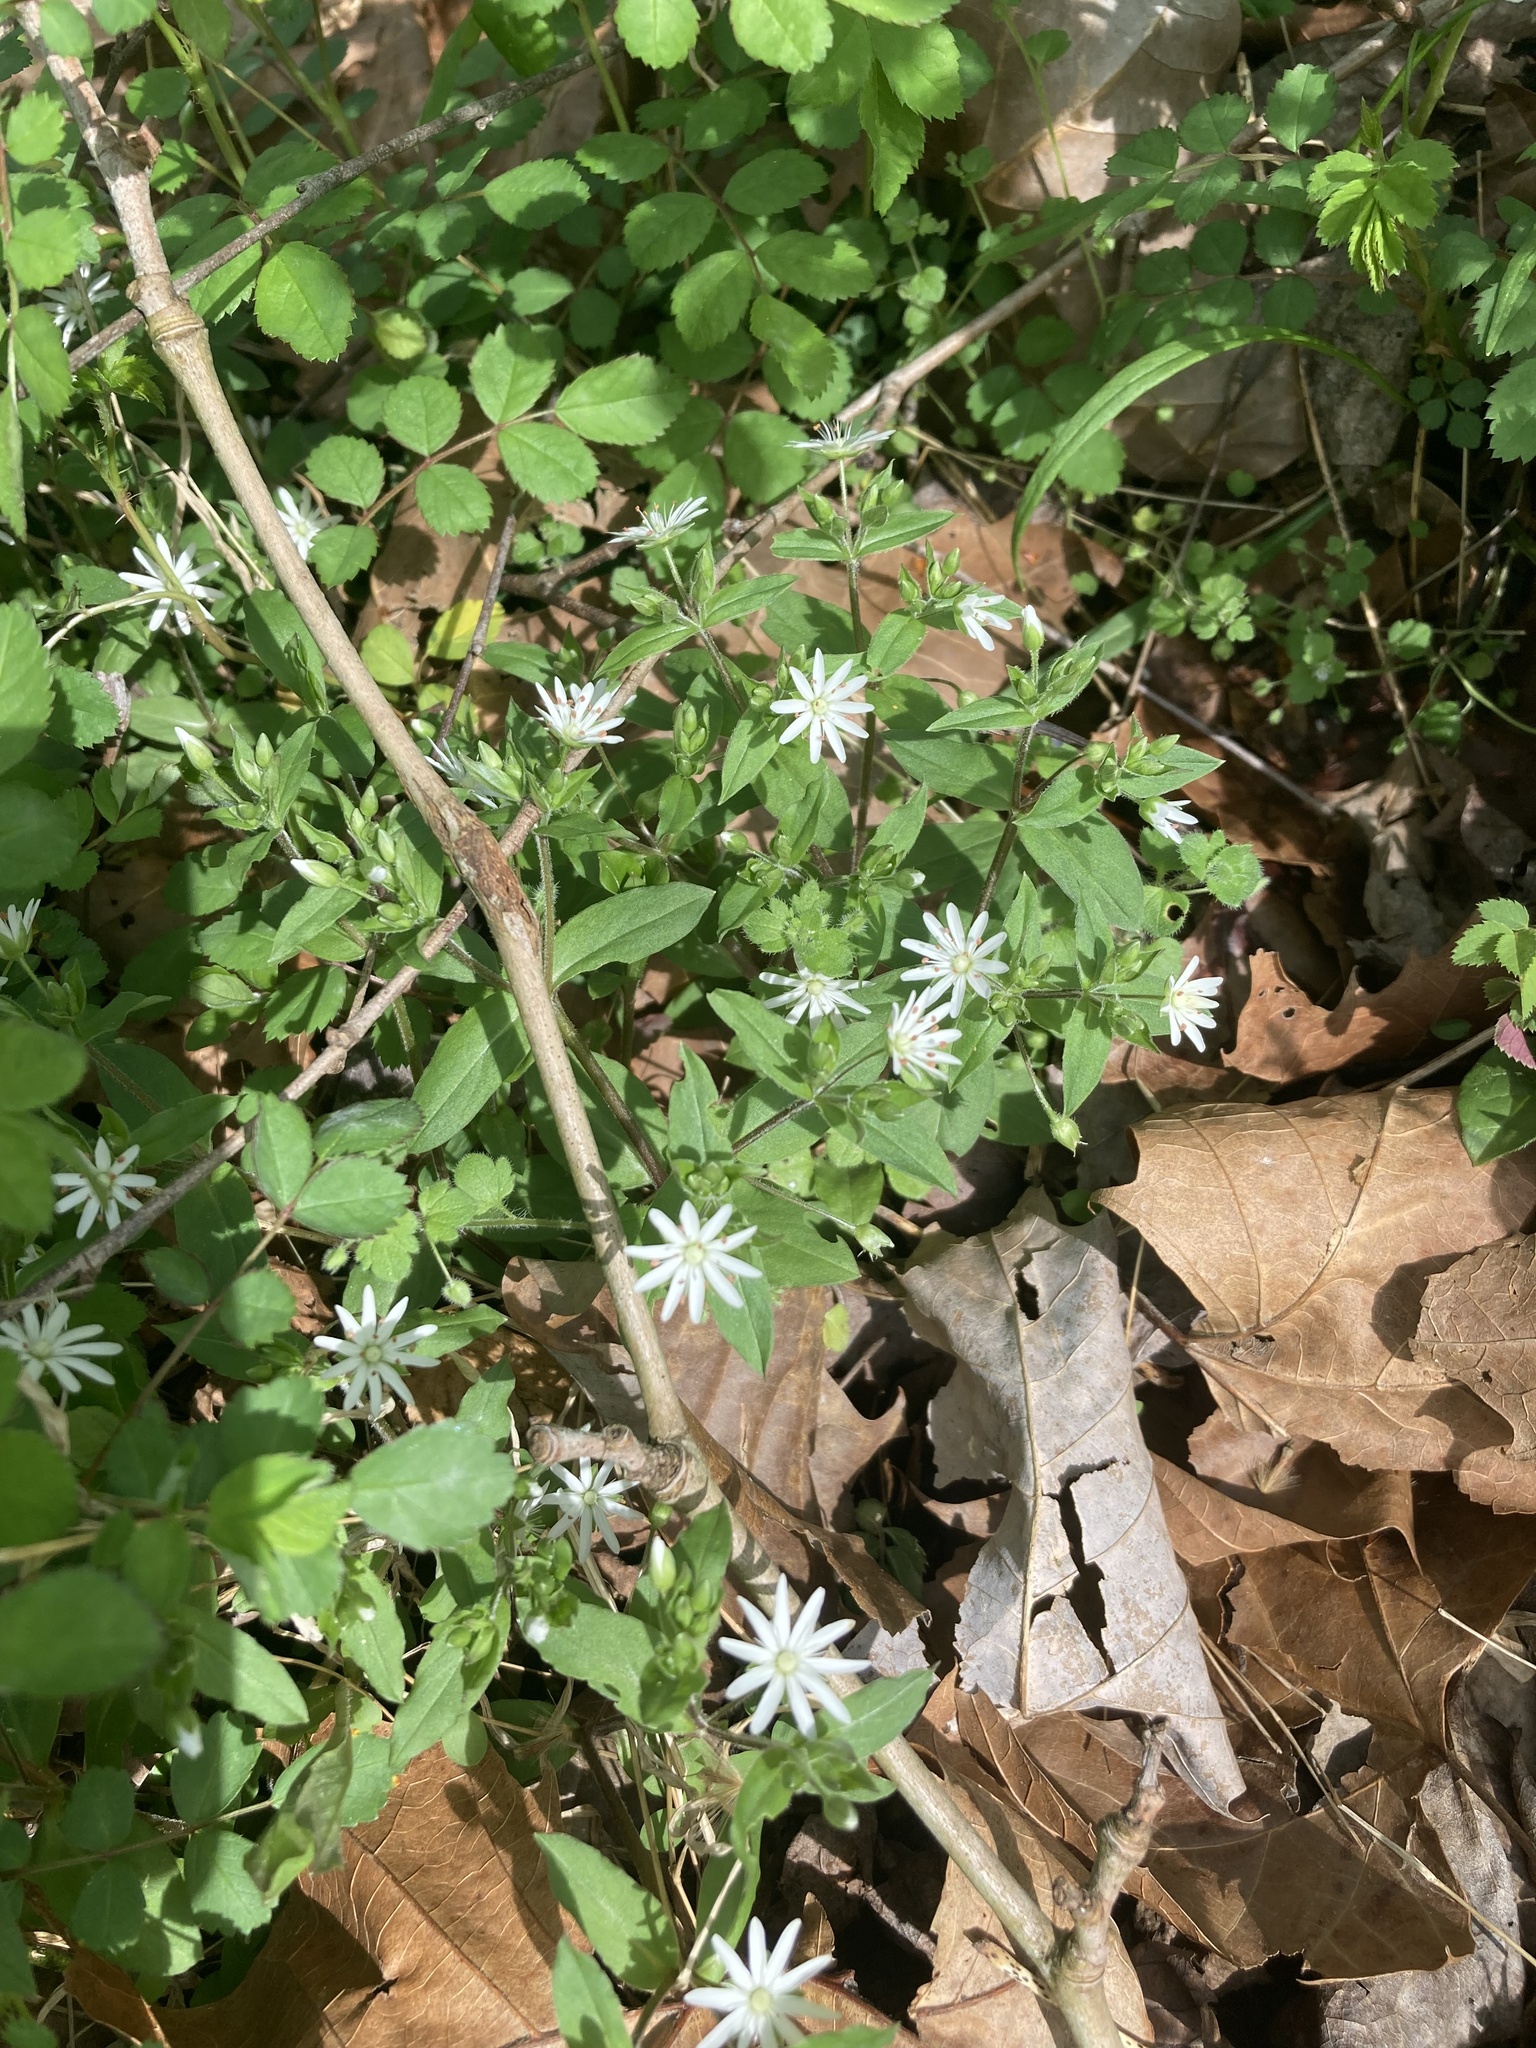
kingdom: Plantae
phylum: Tracheophyta
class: Magnoliopsida
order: Caryophyllales
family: Caryophyllaceae
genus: Stellaria
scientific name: Stellaria pubera
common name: Star chickweed
